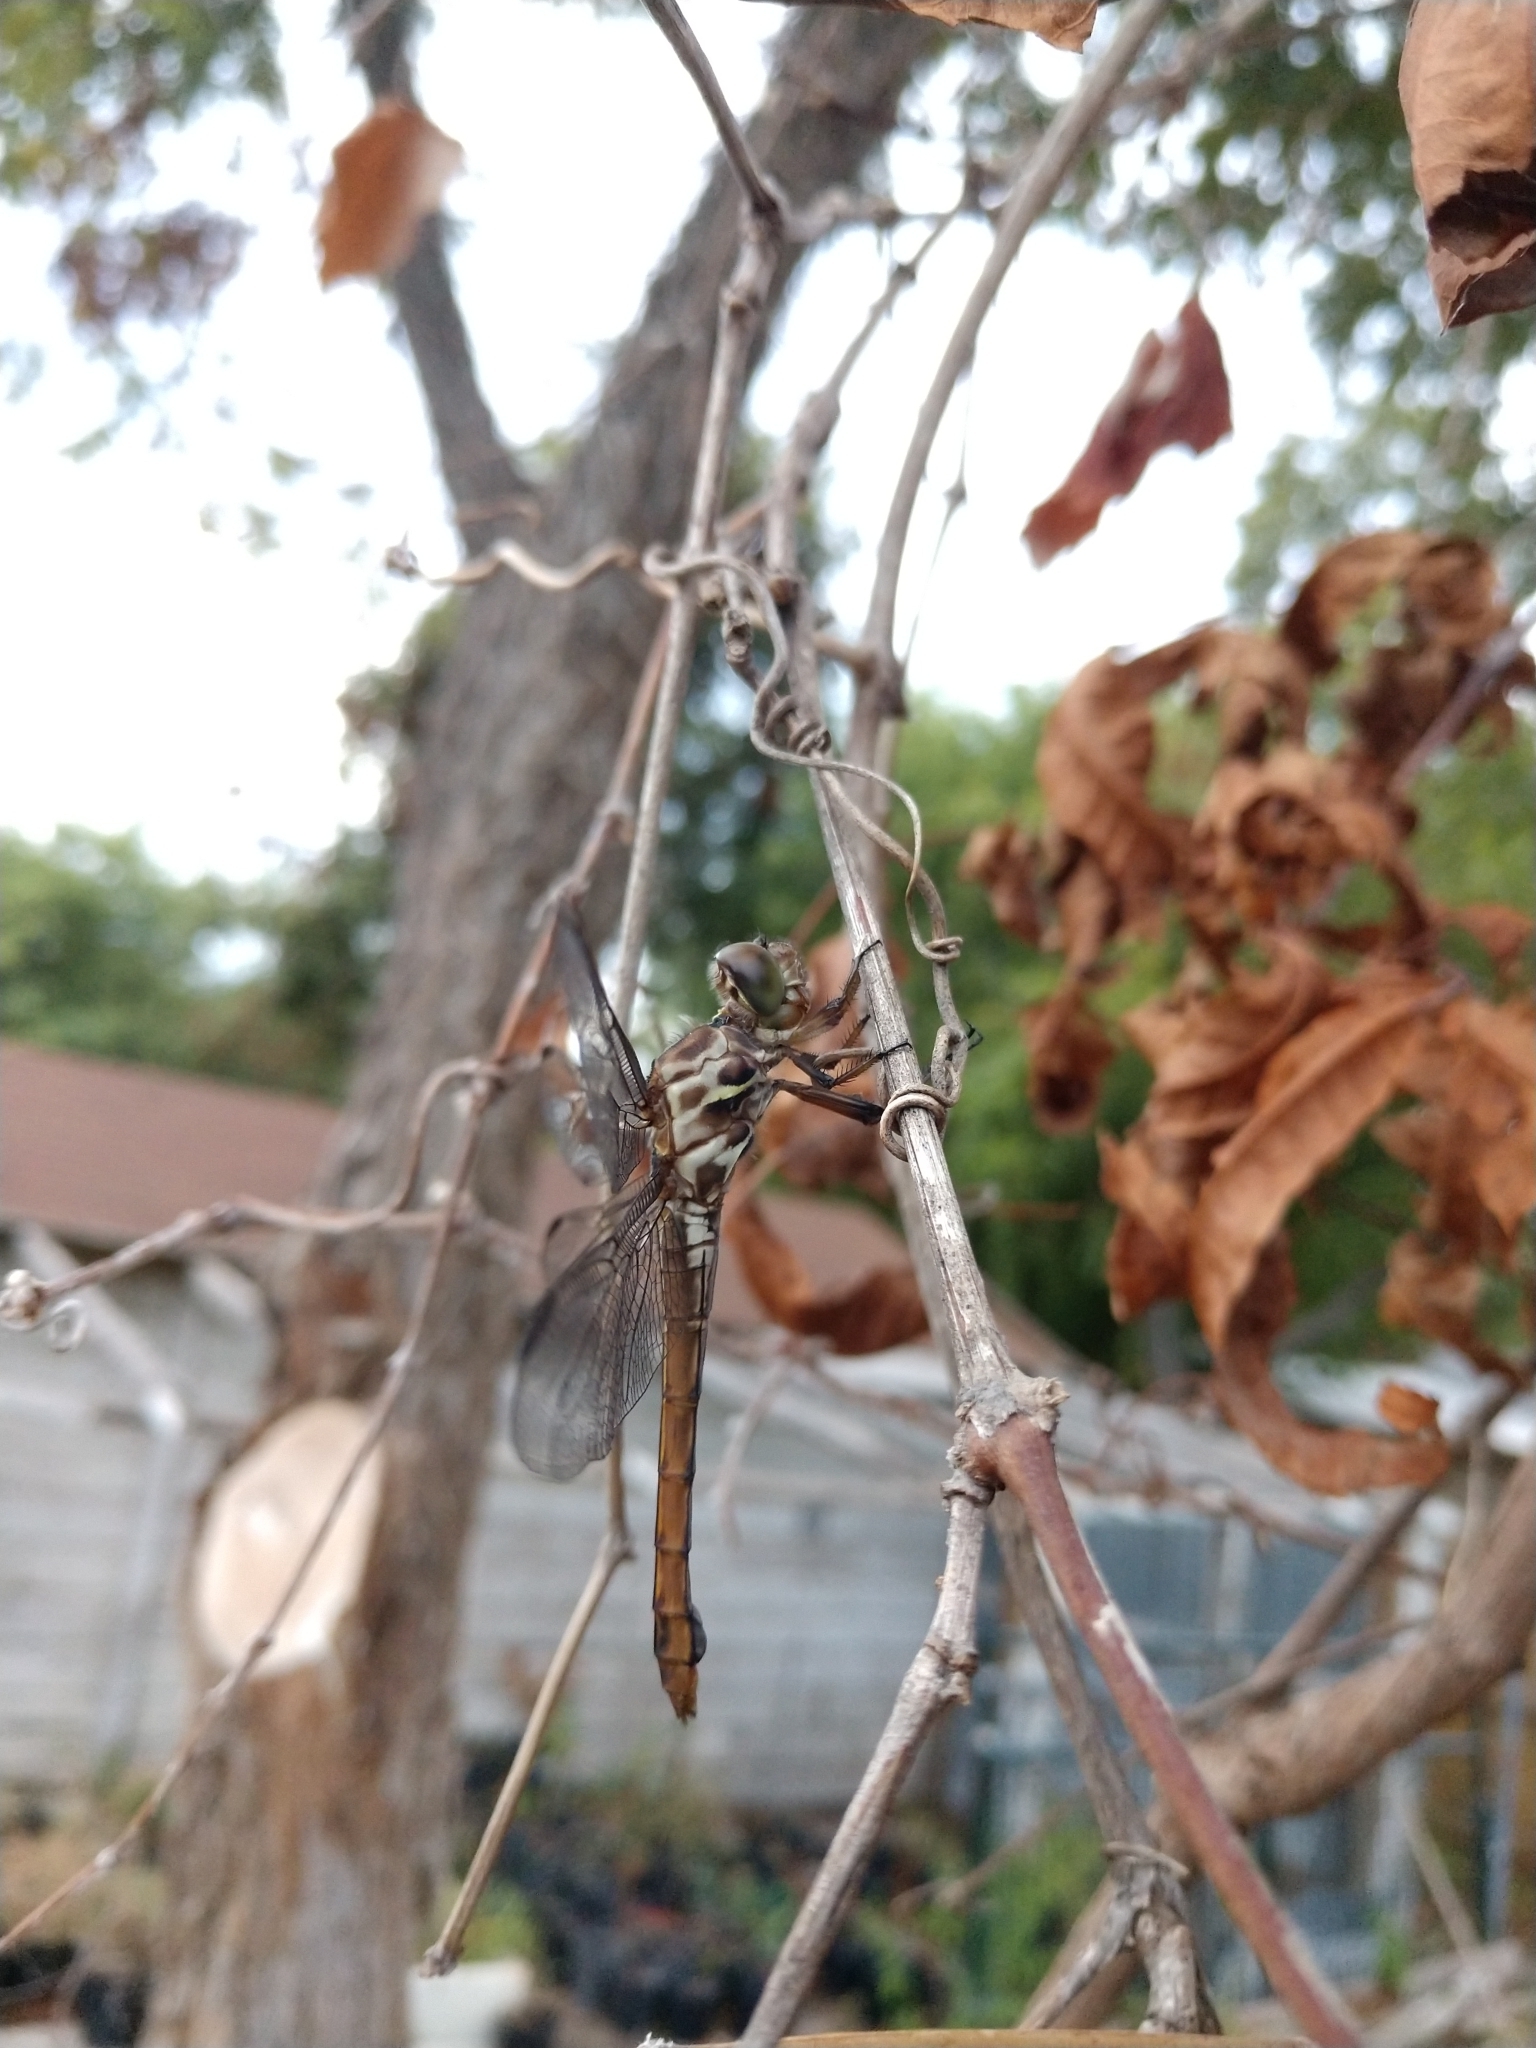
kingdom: Animalia
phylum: Arthropoda
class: Insecta
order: Odonata
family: Libellulidae
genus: Orthemis
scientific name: Orthemis ferruginea
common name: Roseate skimmer
